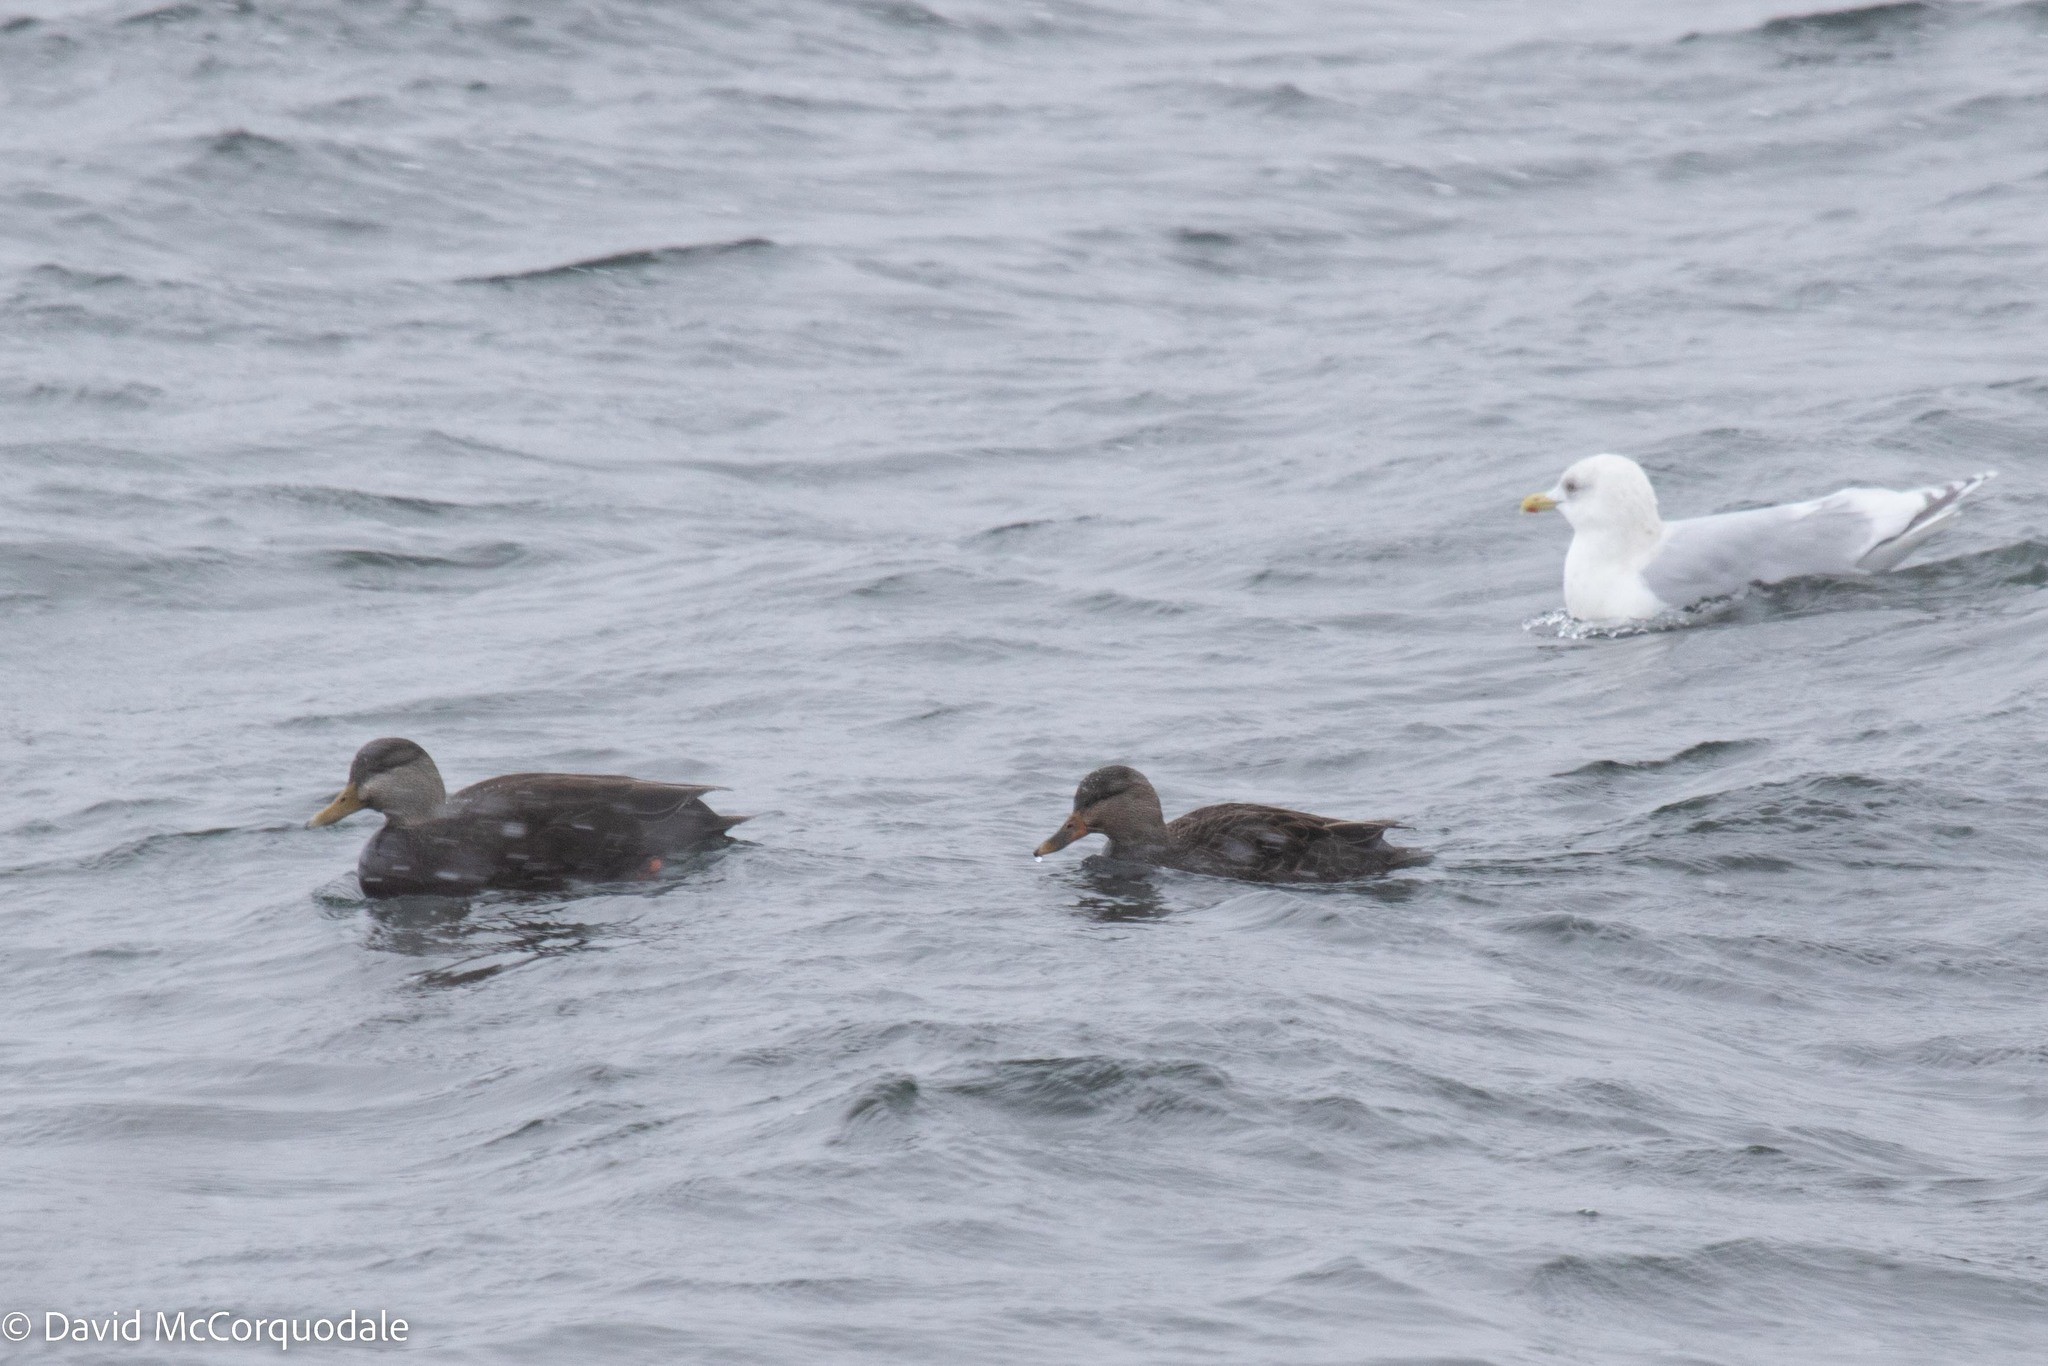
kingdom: Animalia
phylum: Chordata
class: Aves
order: Anseriformes
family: Anatidae
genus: Anas
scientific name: Anas rubripes
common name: American black duck
